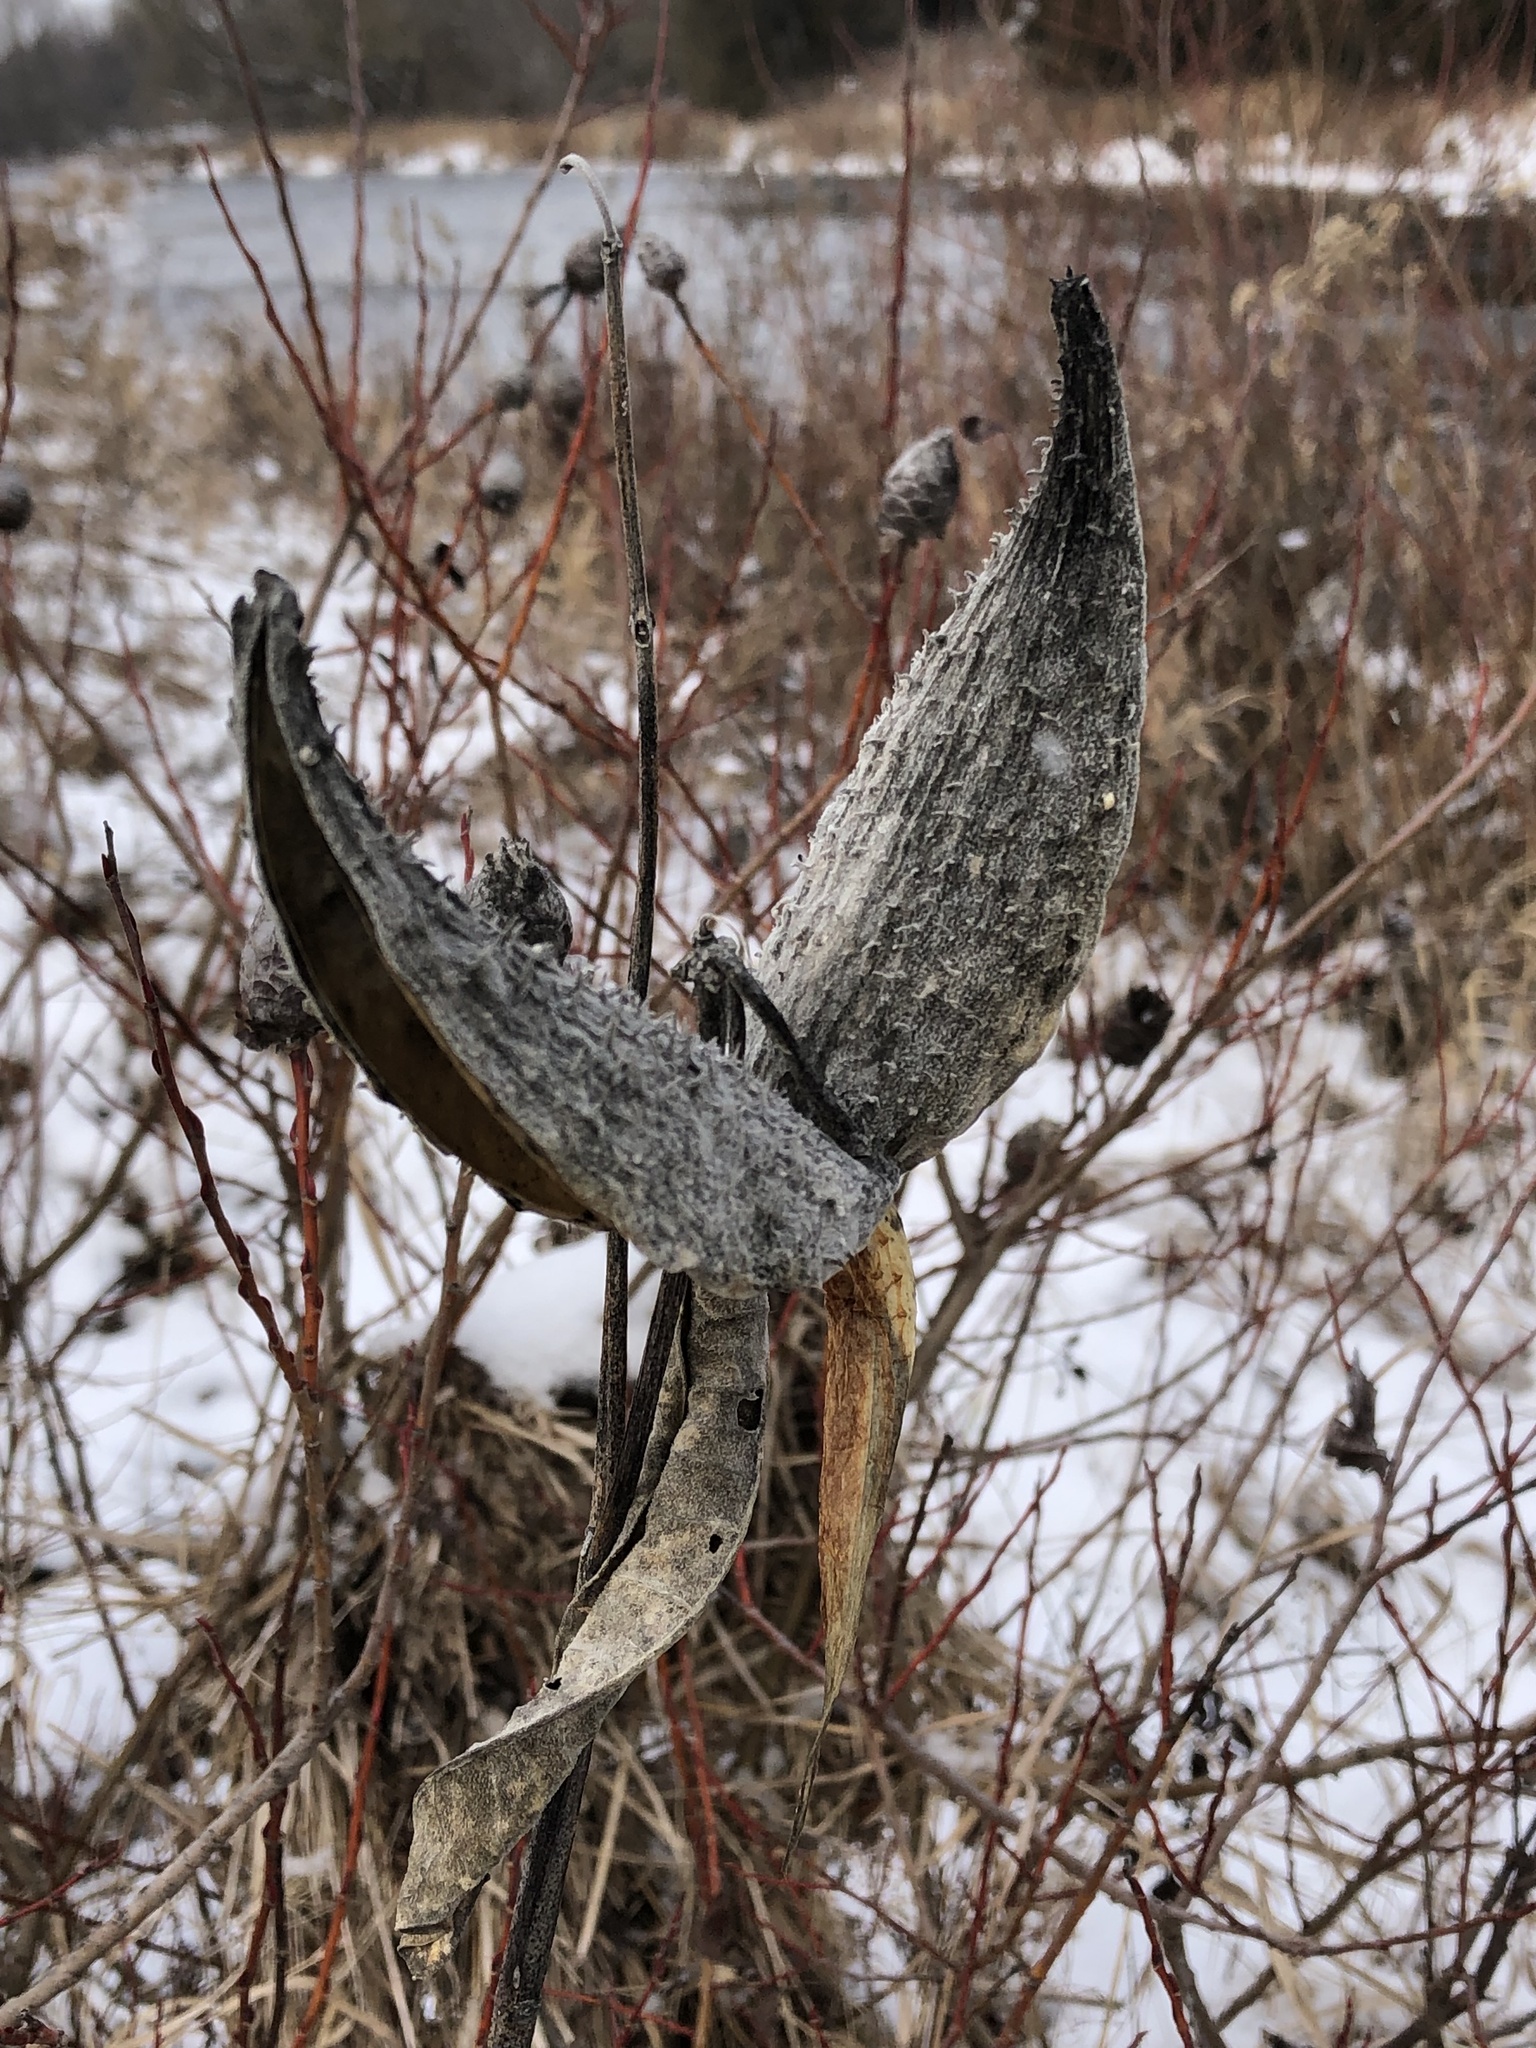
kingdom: Plantae
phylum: Tracheophyta
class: Magnoliopsida
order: Gentianales
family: Apocynaceae
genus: Asclepias
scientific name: Asclepias syriaca
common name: Common milkweed
